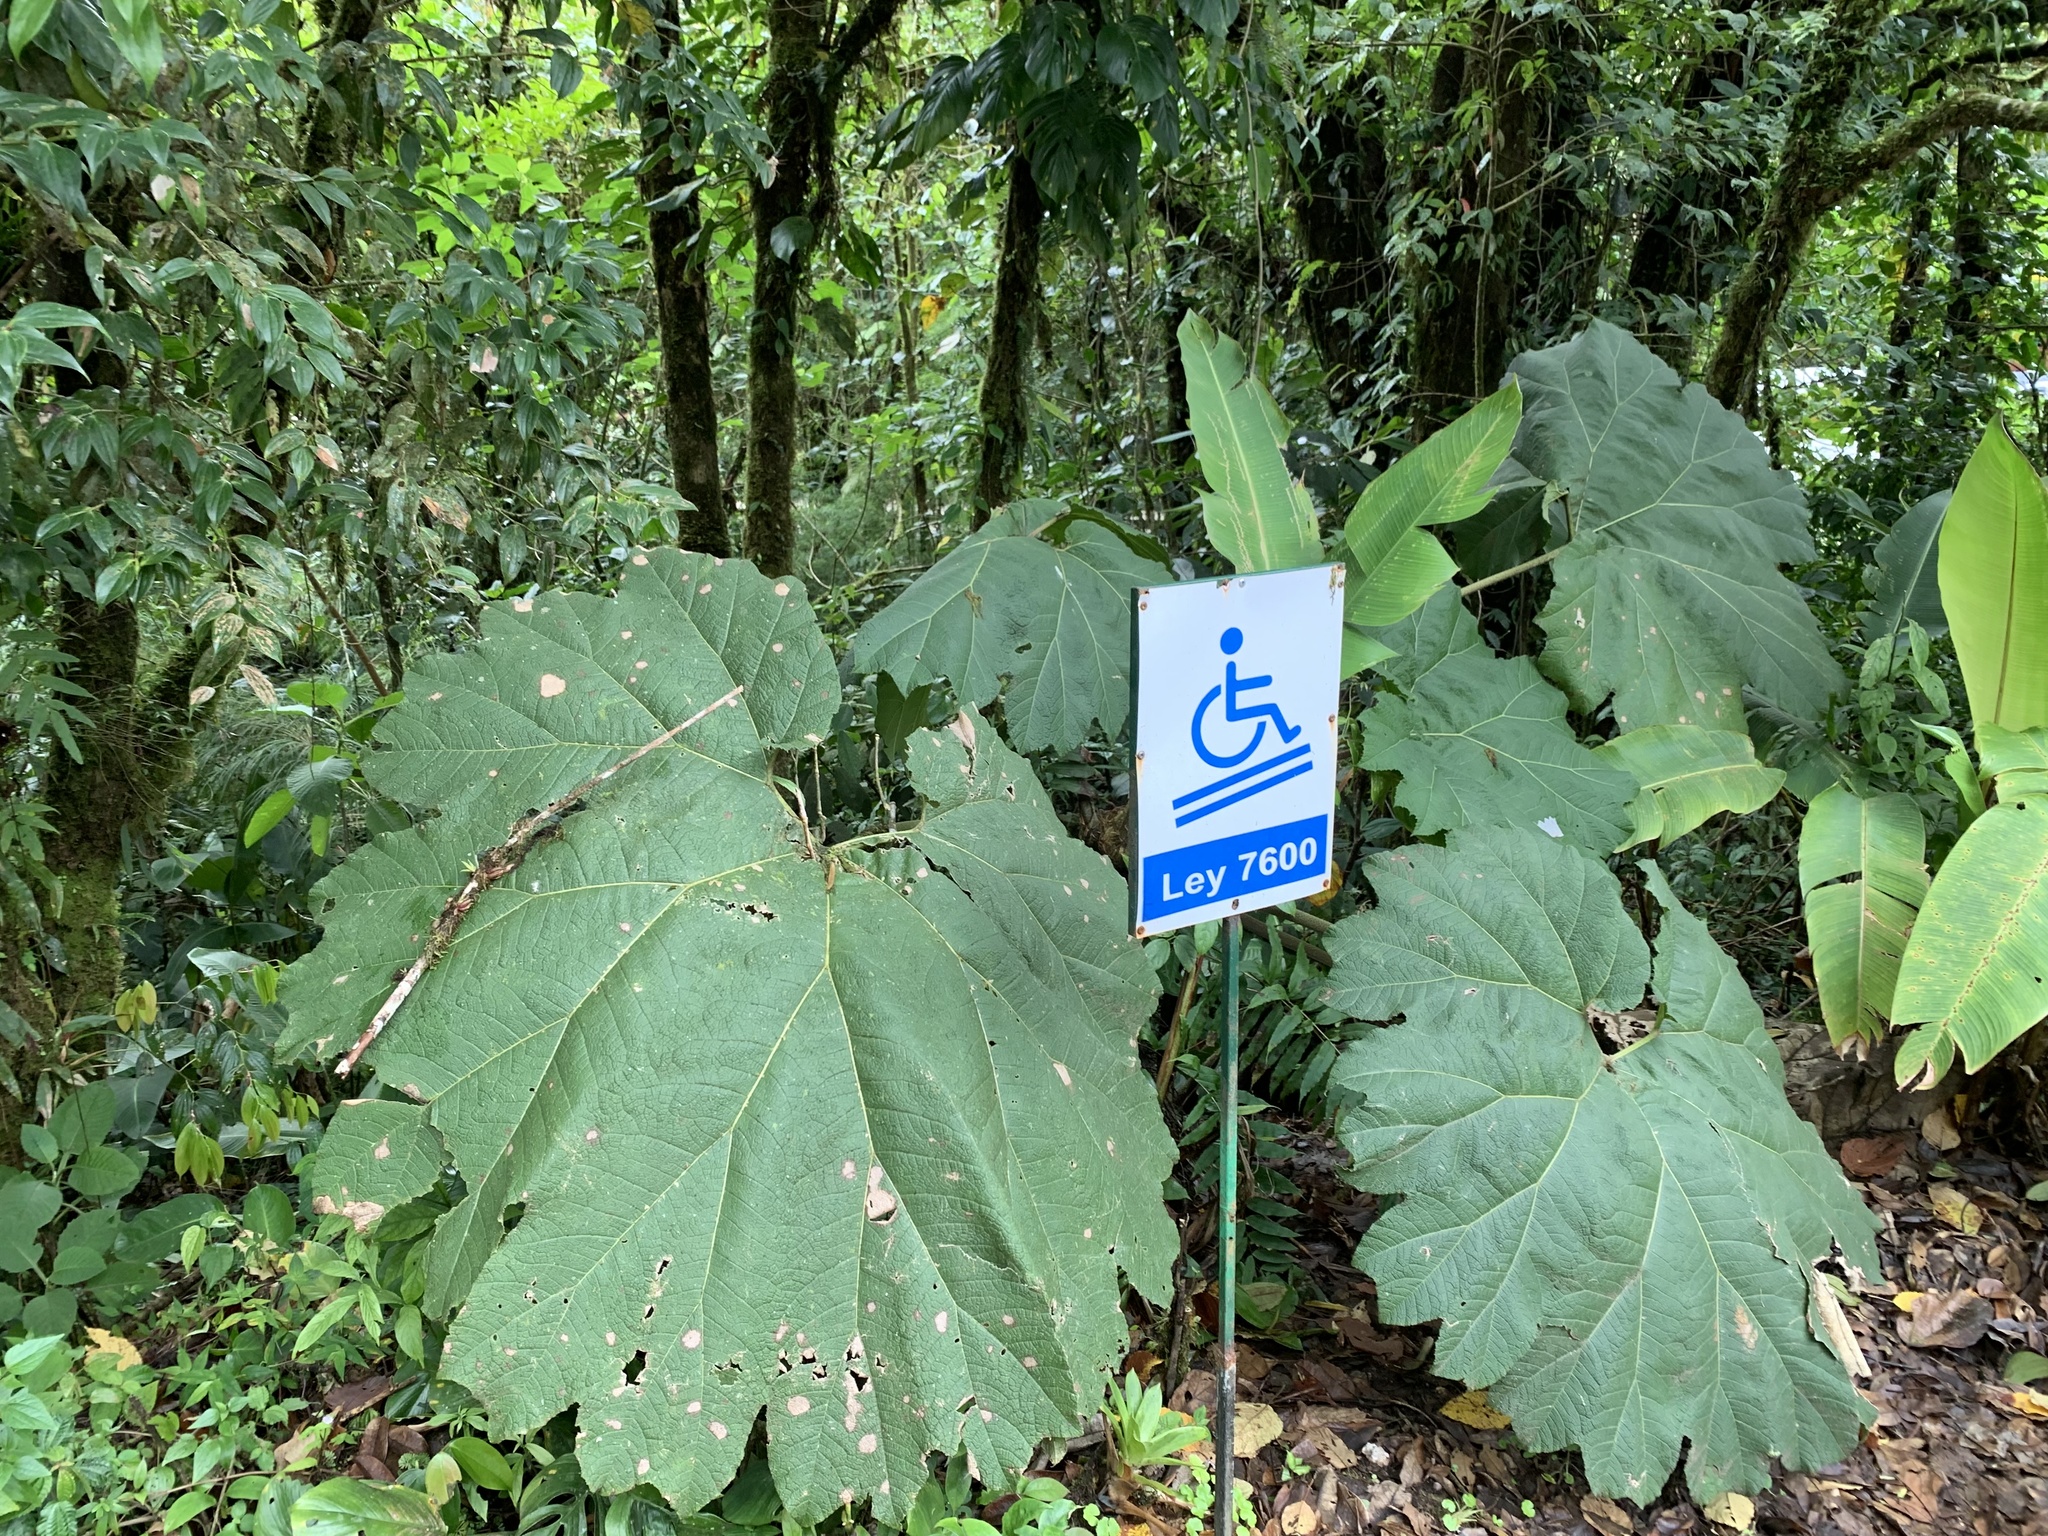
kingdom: Plantae
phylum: Tracheophyta
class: Magnoliopsida
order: Gunnerales
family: Gunneraceae
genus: Gunnera
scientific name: Gunnera insignis
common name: Poorman's umbrella
